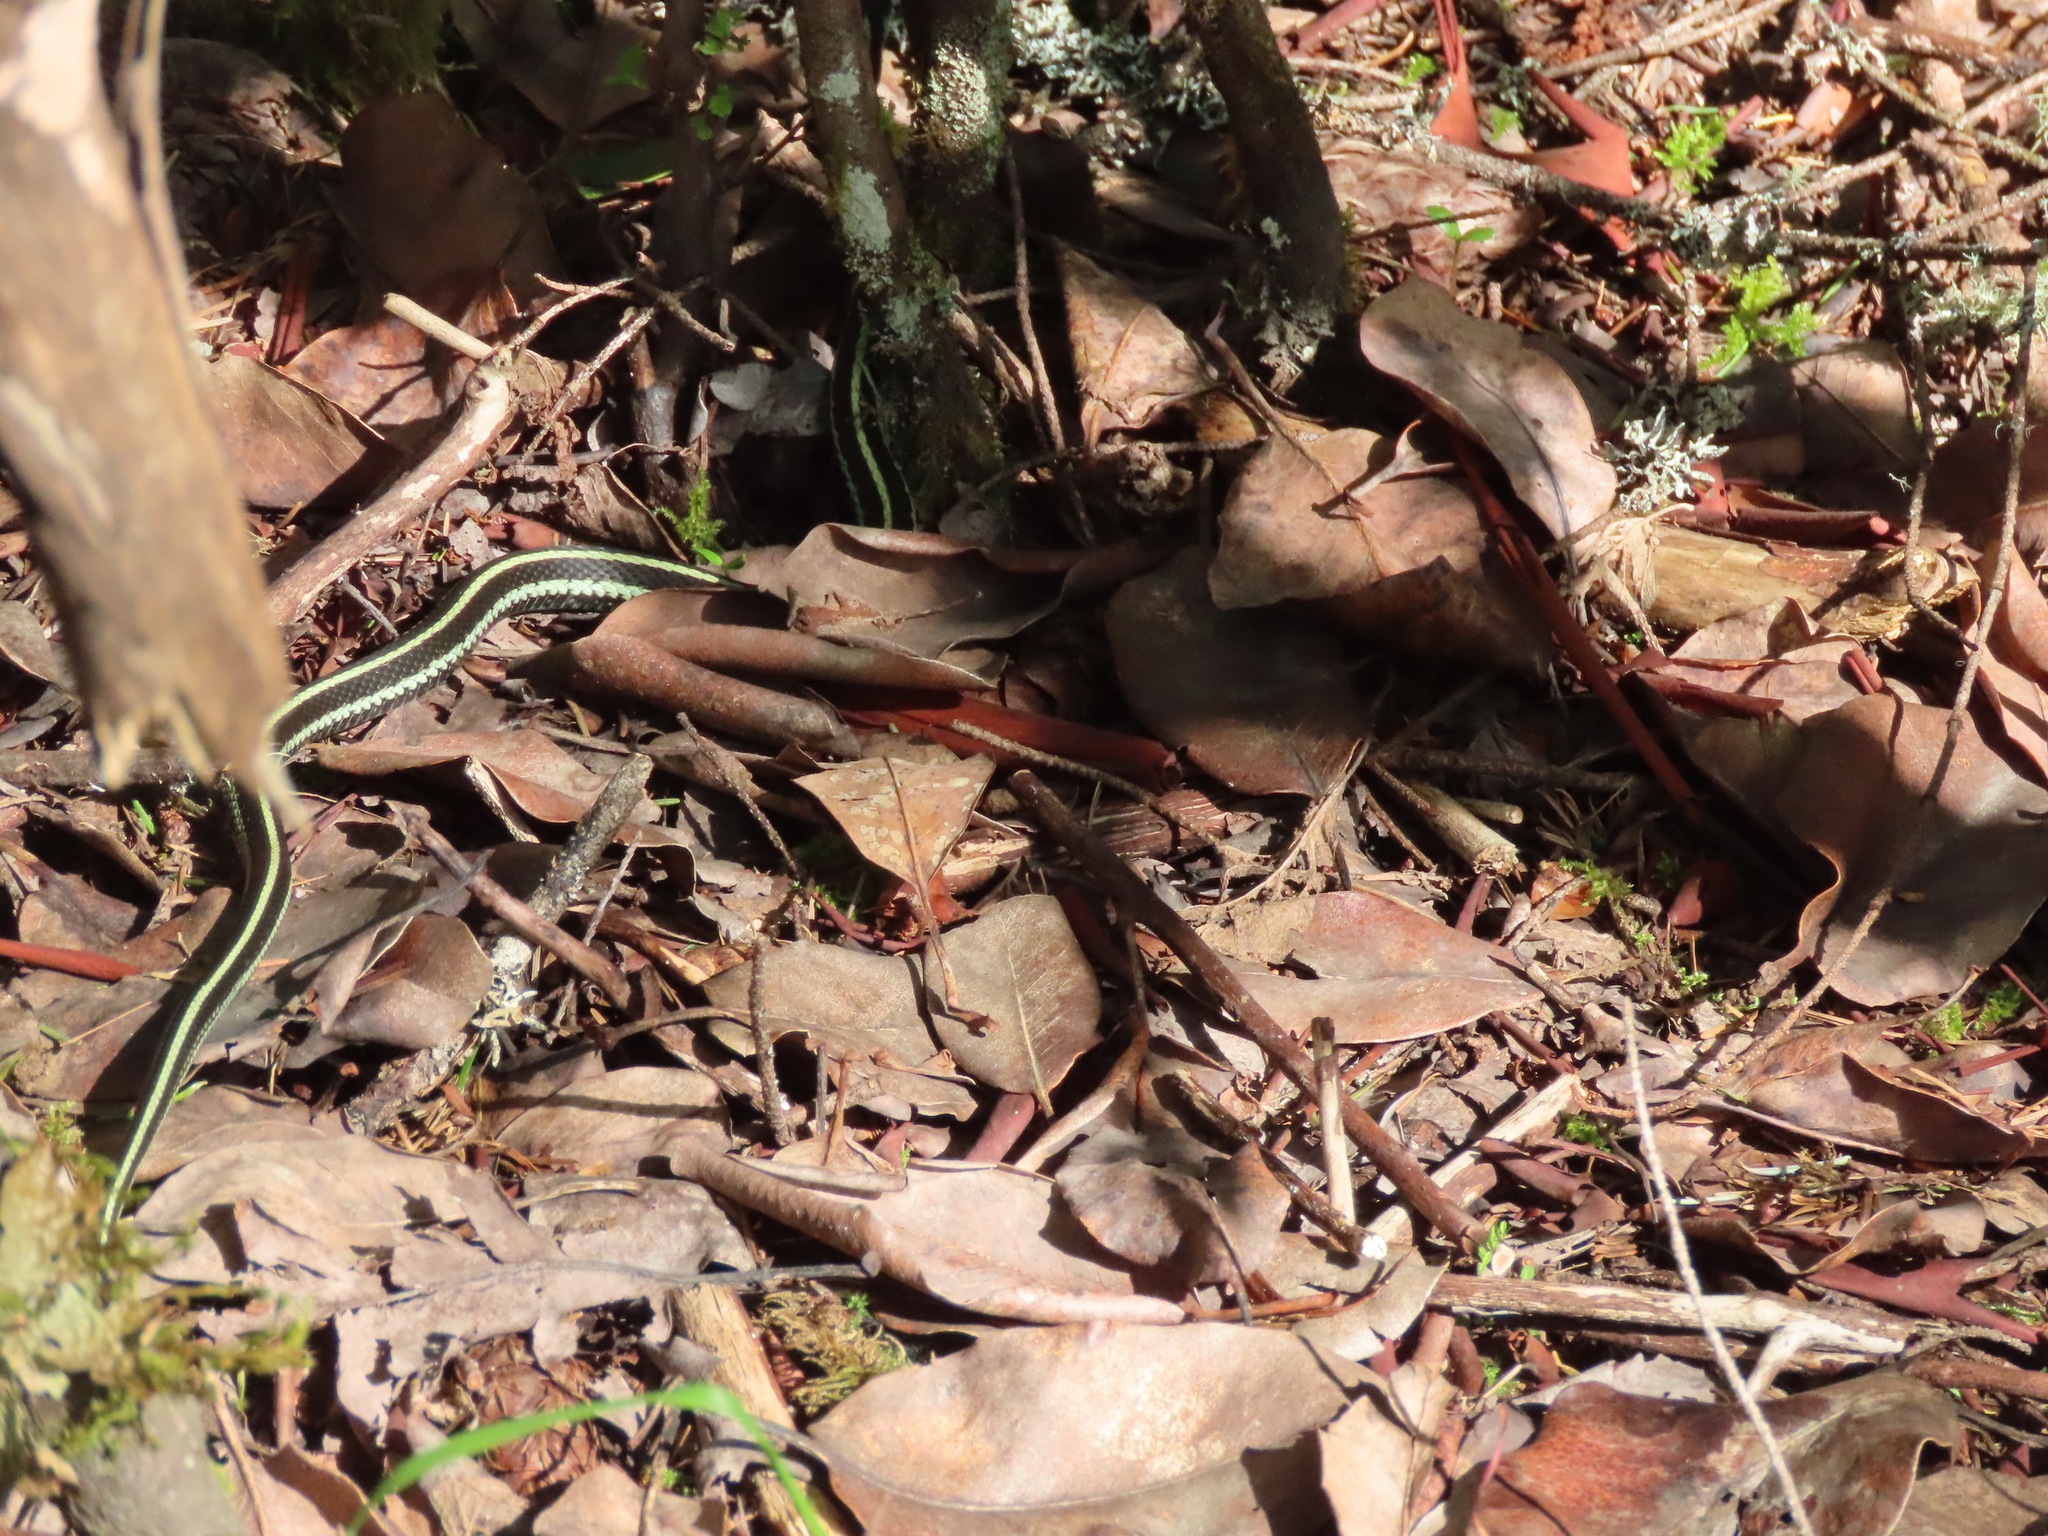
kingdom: Animalia
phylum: Chordata
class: Squamata
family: Colubridae
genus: Thamnophis
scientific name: Thamnophis sirtalis
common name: Common garter snake
